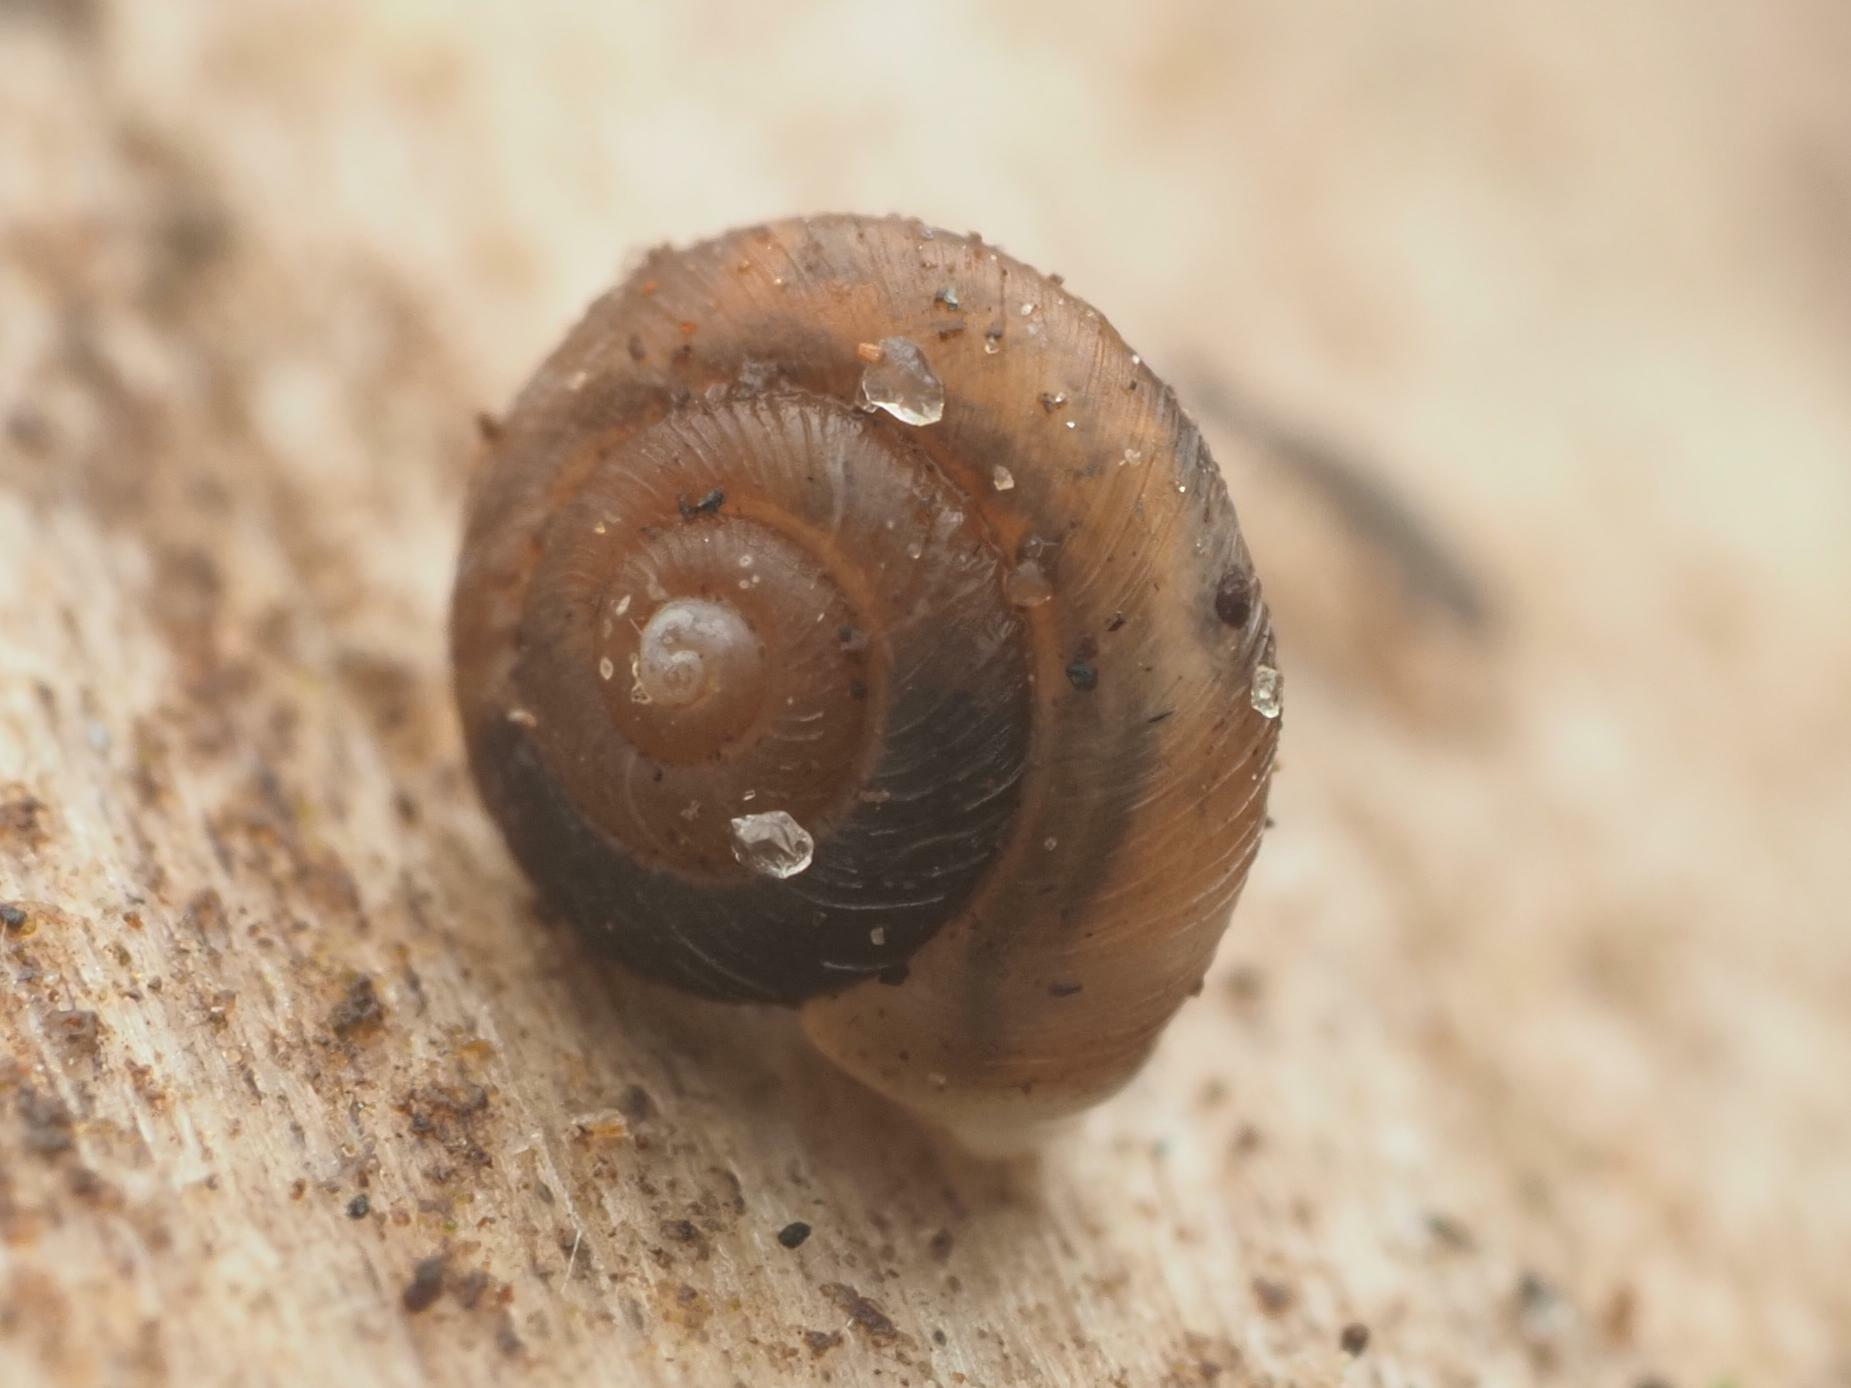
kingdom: Animalia
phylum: Mollusca
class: Gastropoda
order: Stylommatophora
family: Punctidae
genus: Paralaoma
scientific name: Paralaoma servilis
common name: Pinhead spot
